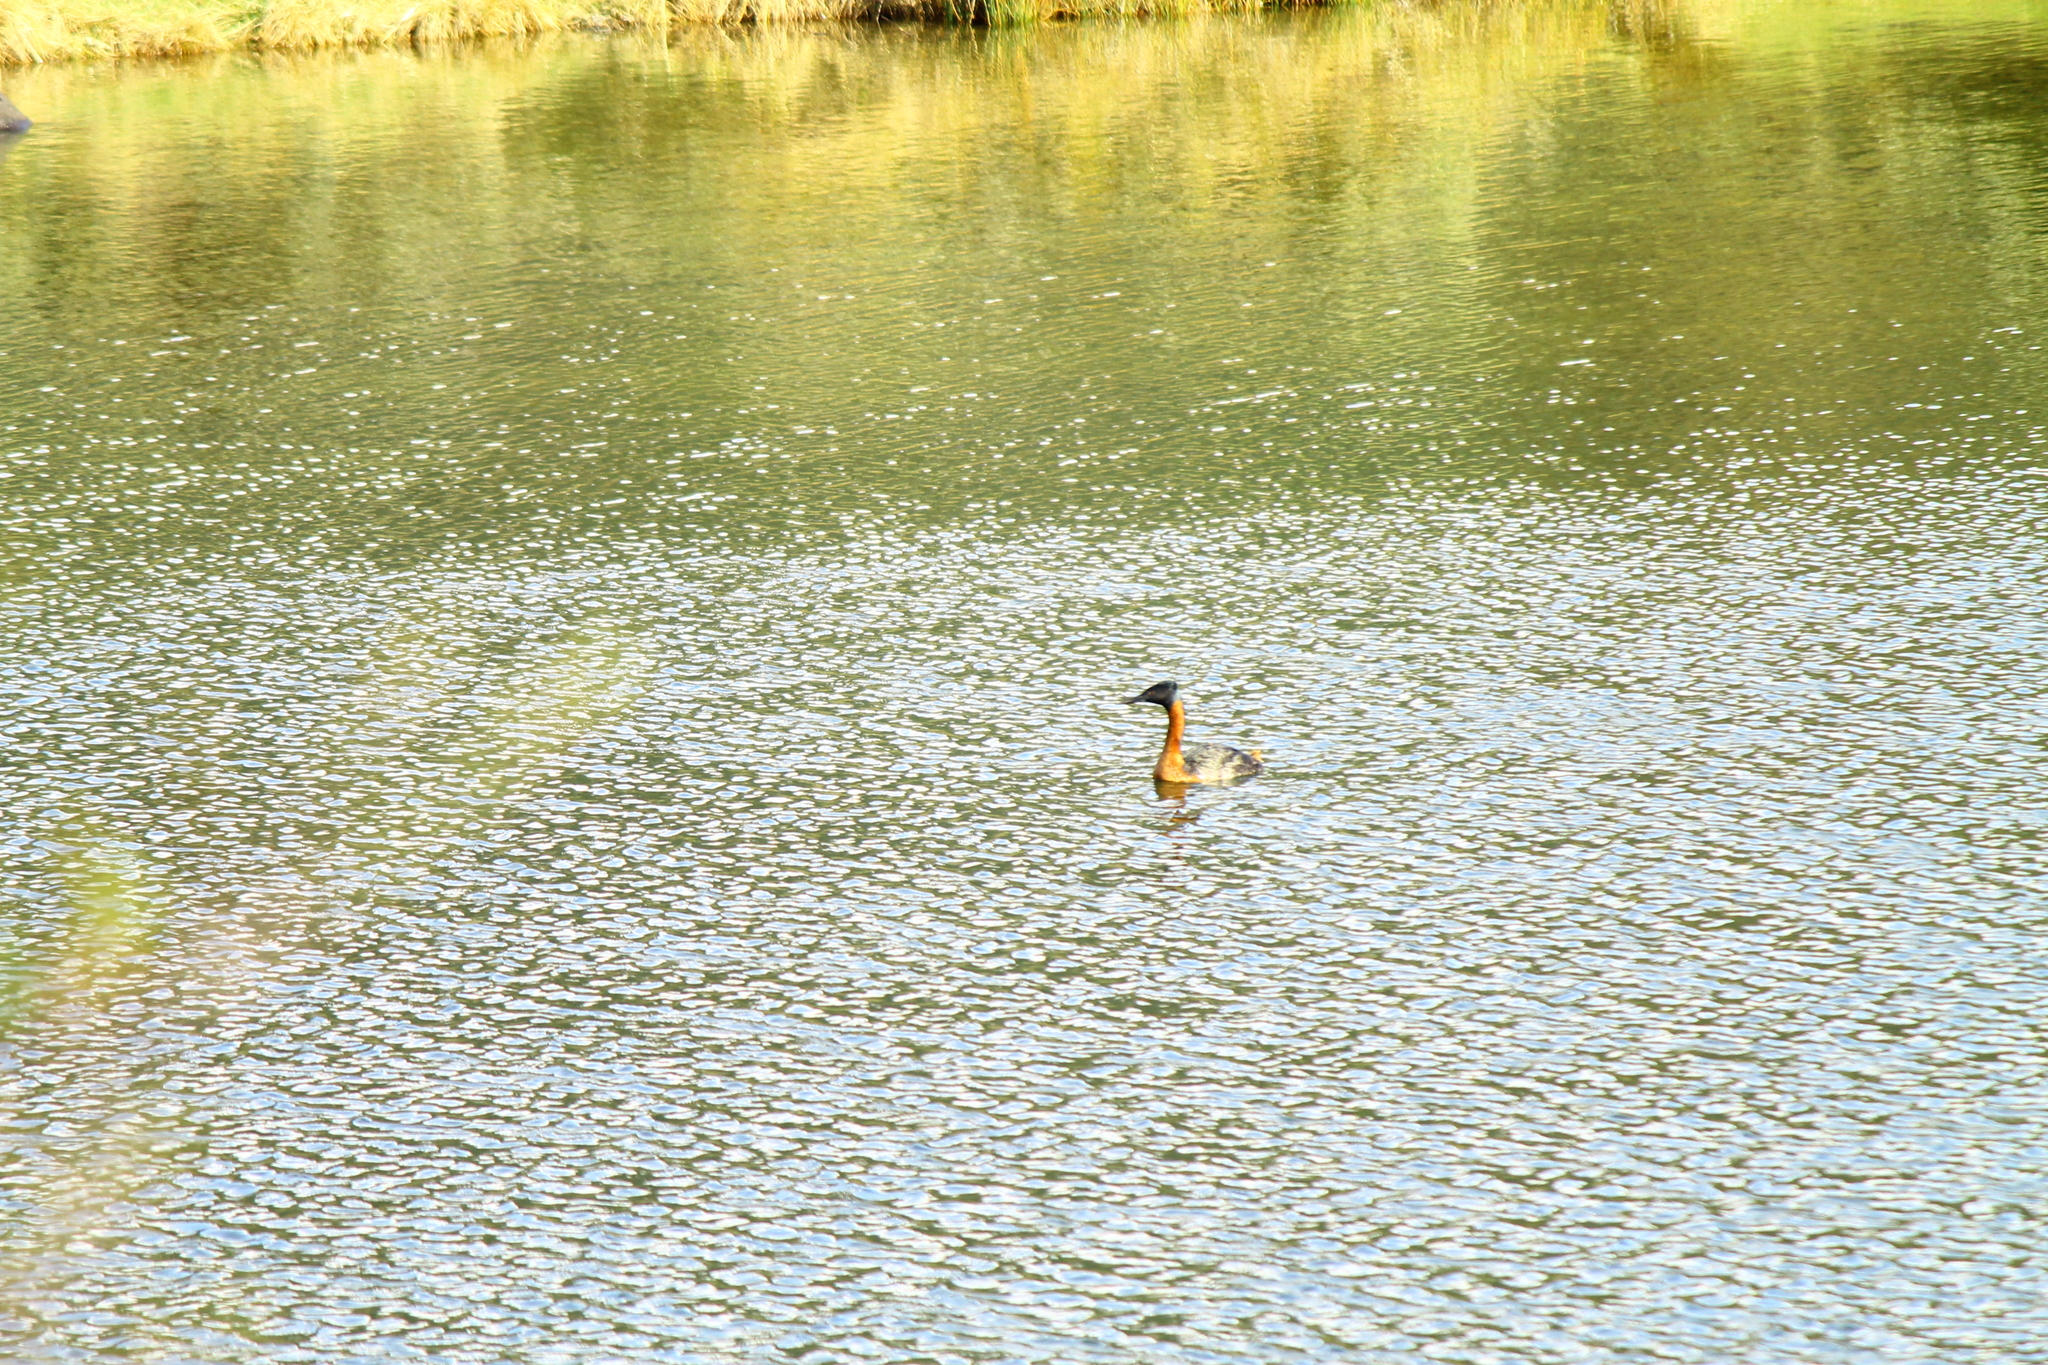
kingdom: Animalia
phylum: Chordata
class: Aves
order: Podicipediformes
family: Podicipedidae
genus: Podiceps
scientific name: Podiceps major
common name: Great grebe
